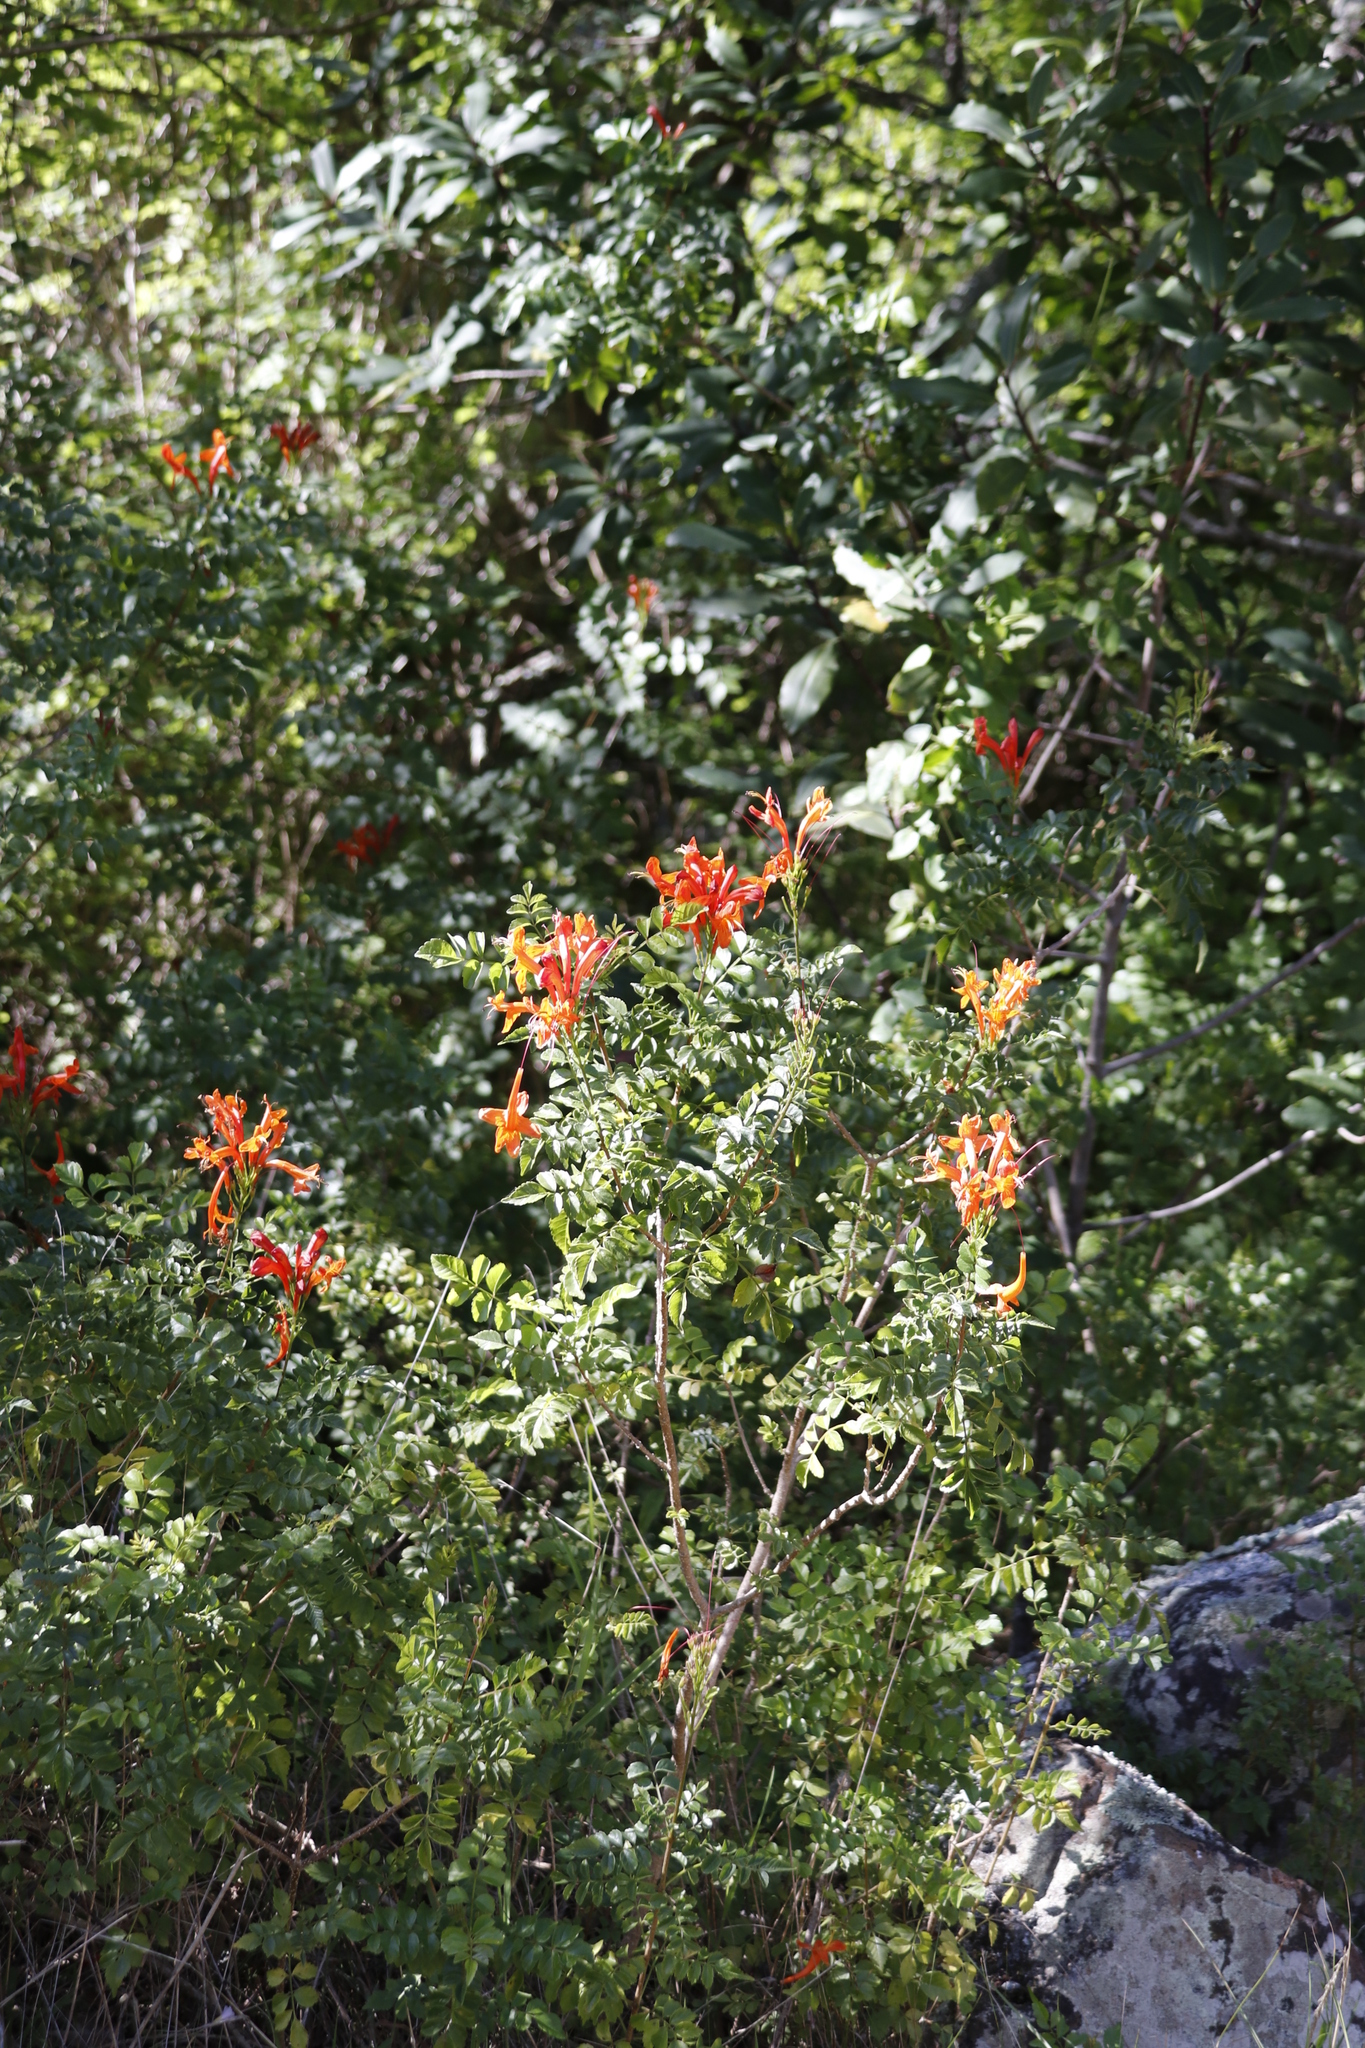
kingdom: Plantae
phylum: Tracheophyta
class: Magnoliopsida
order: Lamiales
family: Bignoniaceae
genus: Tecomaria
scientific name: Tecomaria capensis
